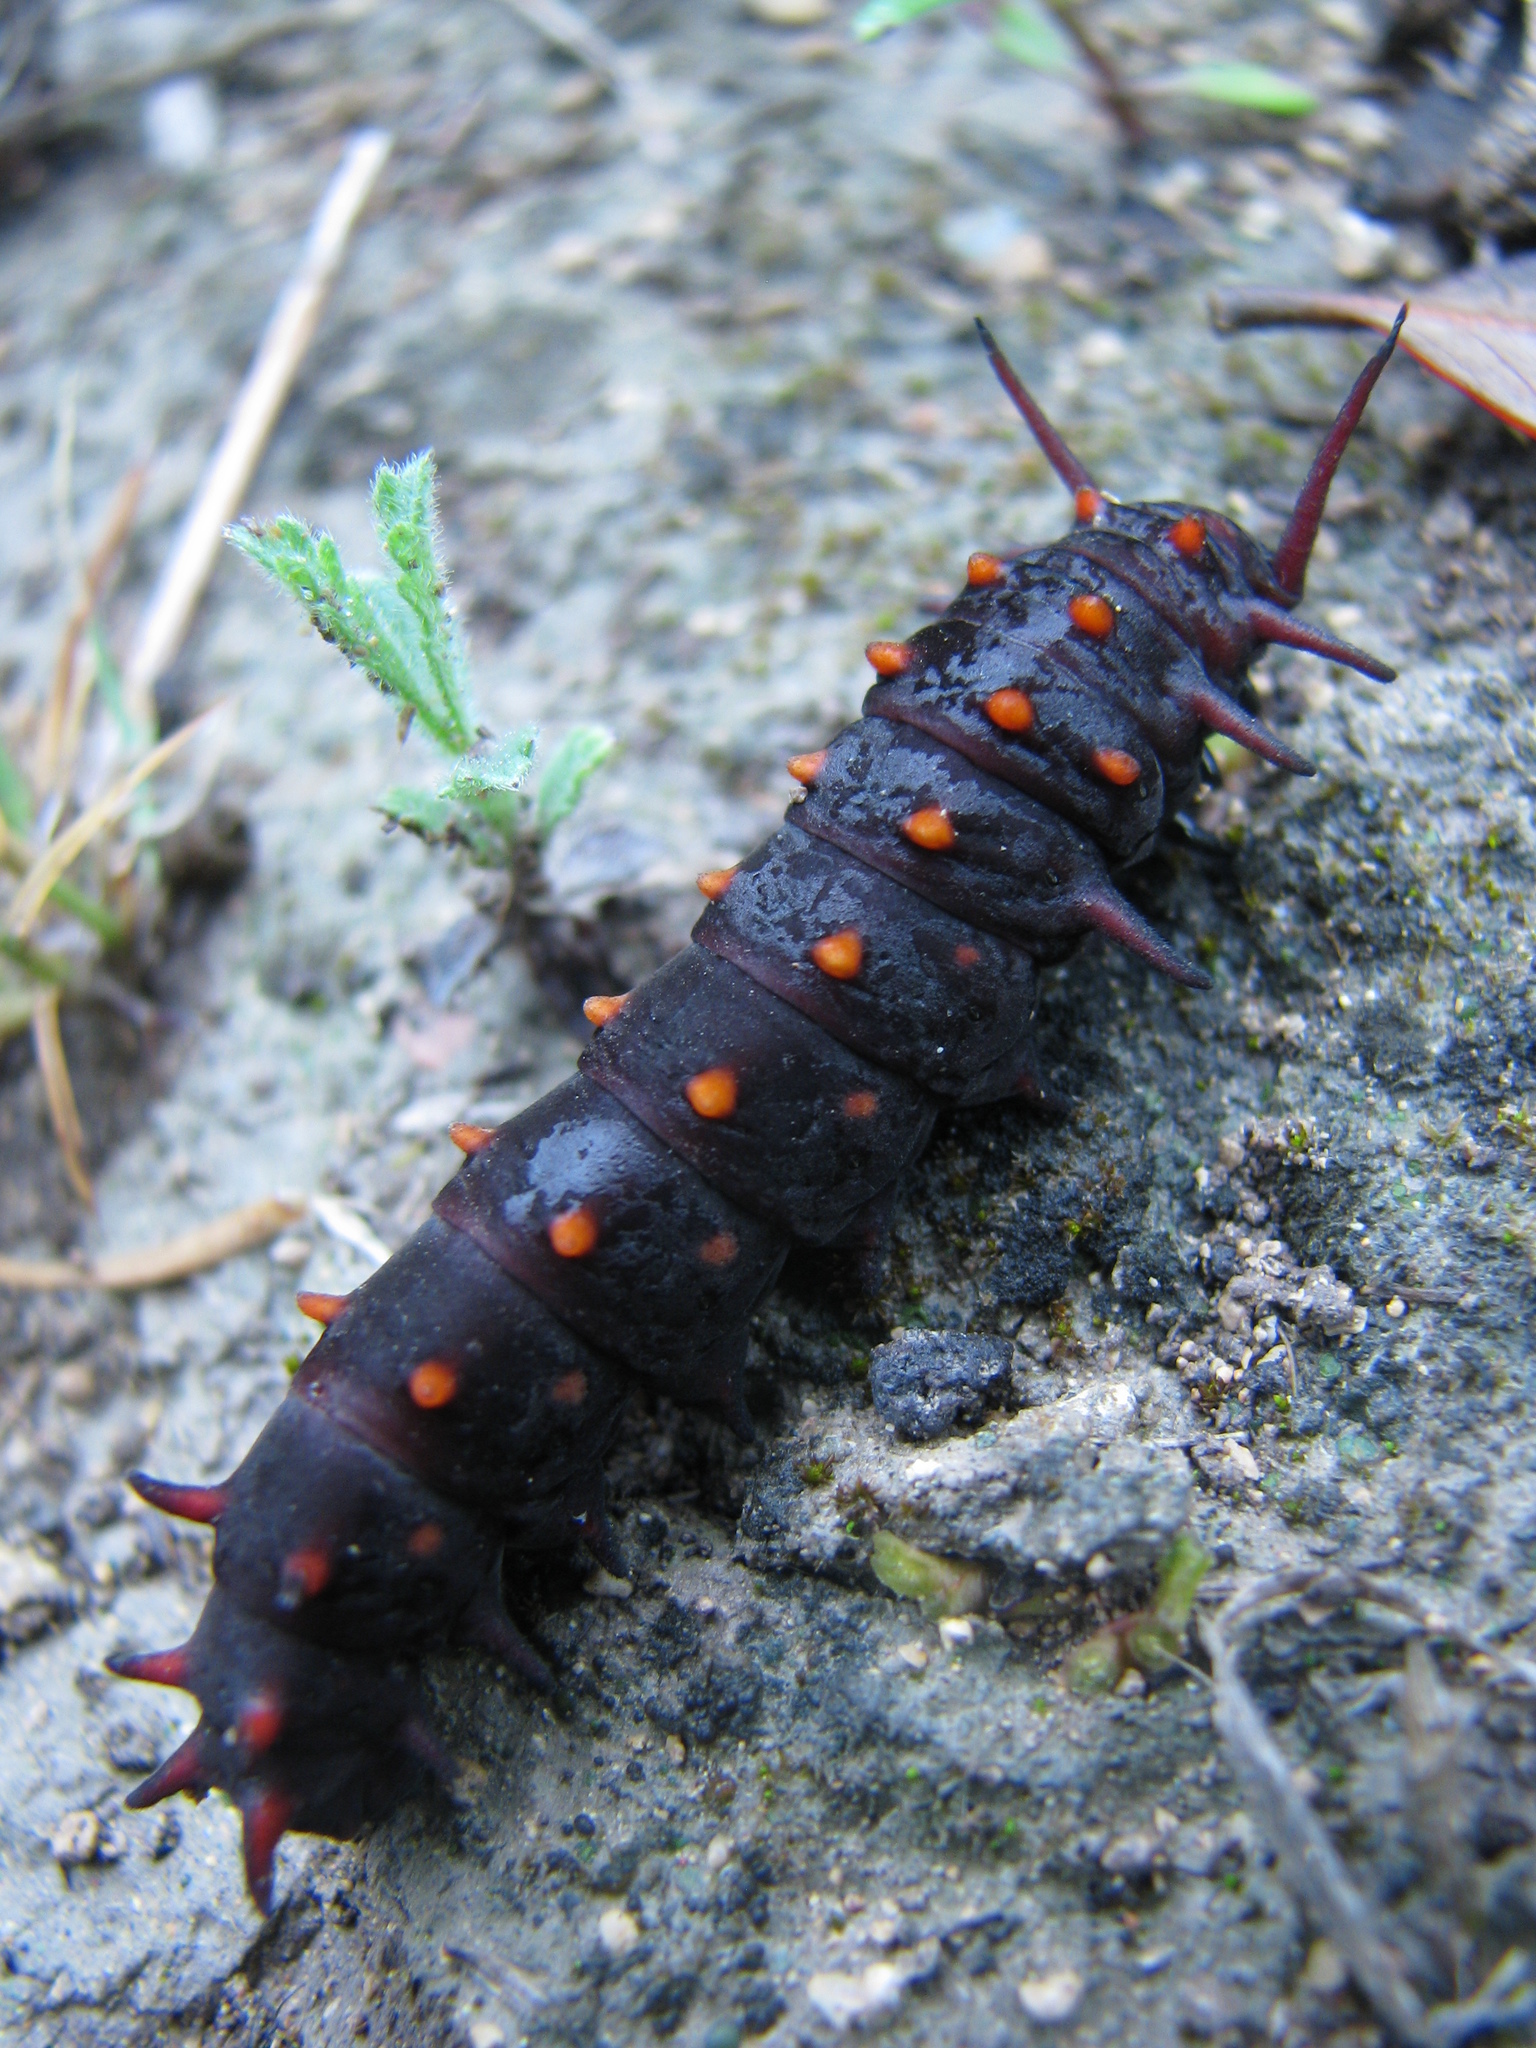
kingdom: Animalia
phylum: Arthropoda
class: Insecta
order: Lepidoptera
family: Papilionidae
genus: Battus
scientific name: Battus philenor
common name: Pipevine swallowtail
